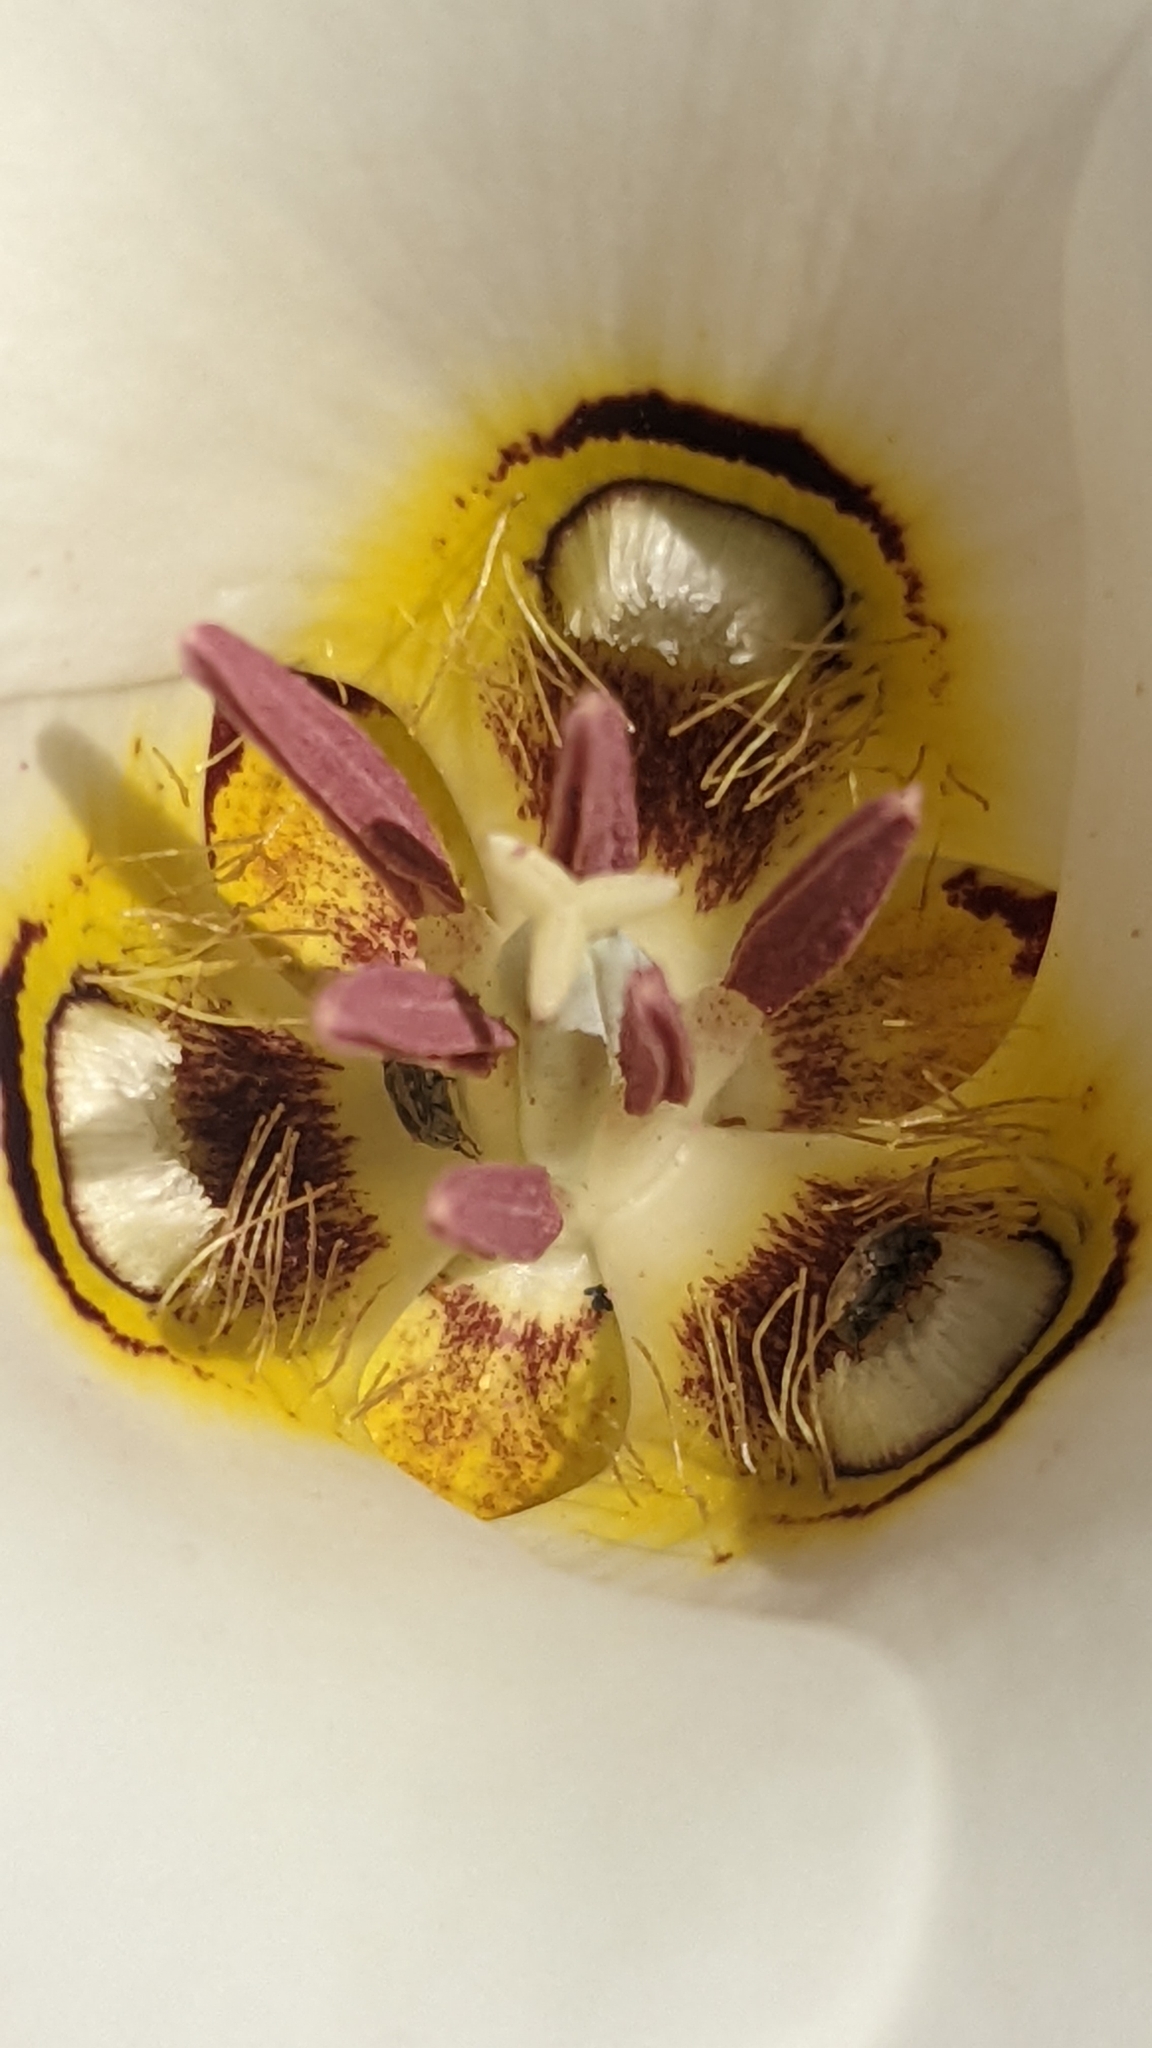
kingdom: Plantae
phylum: Tracheophyta
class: Liliopsida
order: Liliales
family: Liliaceae
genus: Calochortus
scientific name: Calochortus nuttallii
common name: Sego-lily
